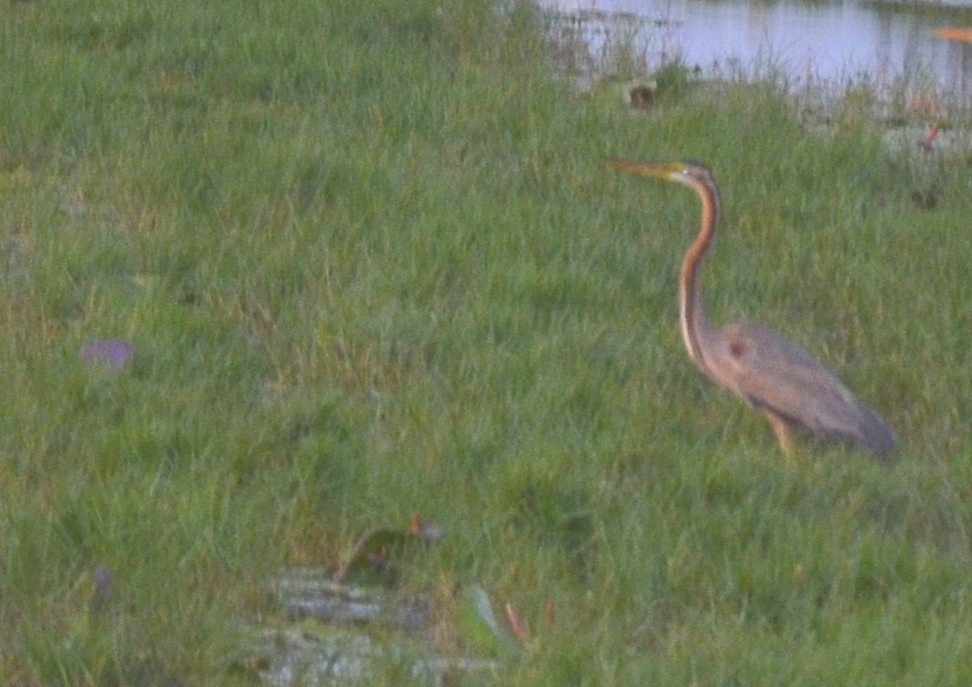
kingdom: Animalia
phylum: Chordata
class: Aves
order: Pelecaniformes
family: Ardeidae
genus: Ardea
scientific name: Ardea purpurea
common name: Purple heron
